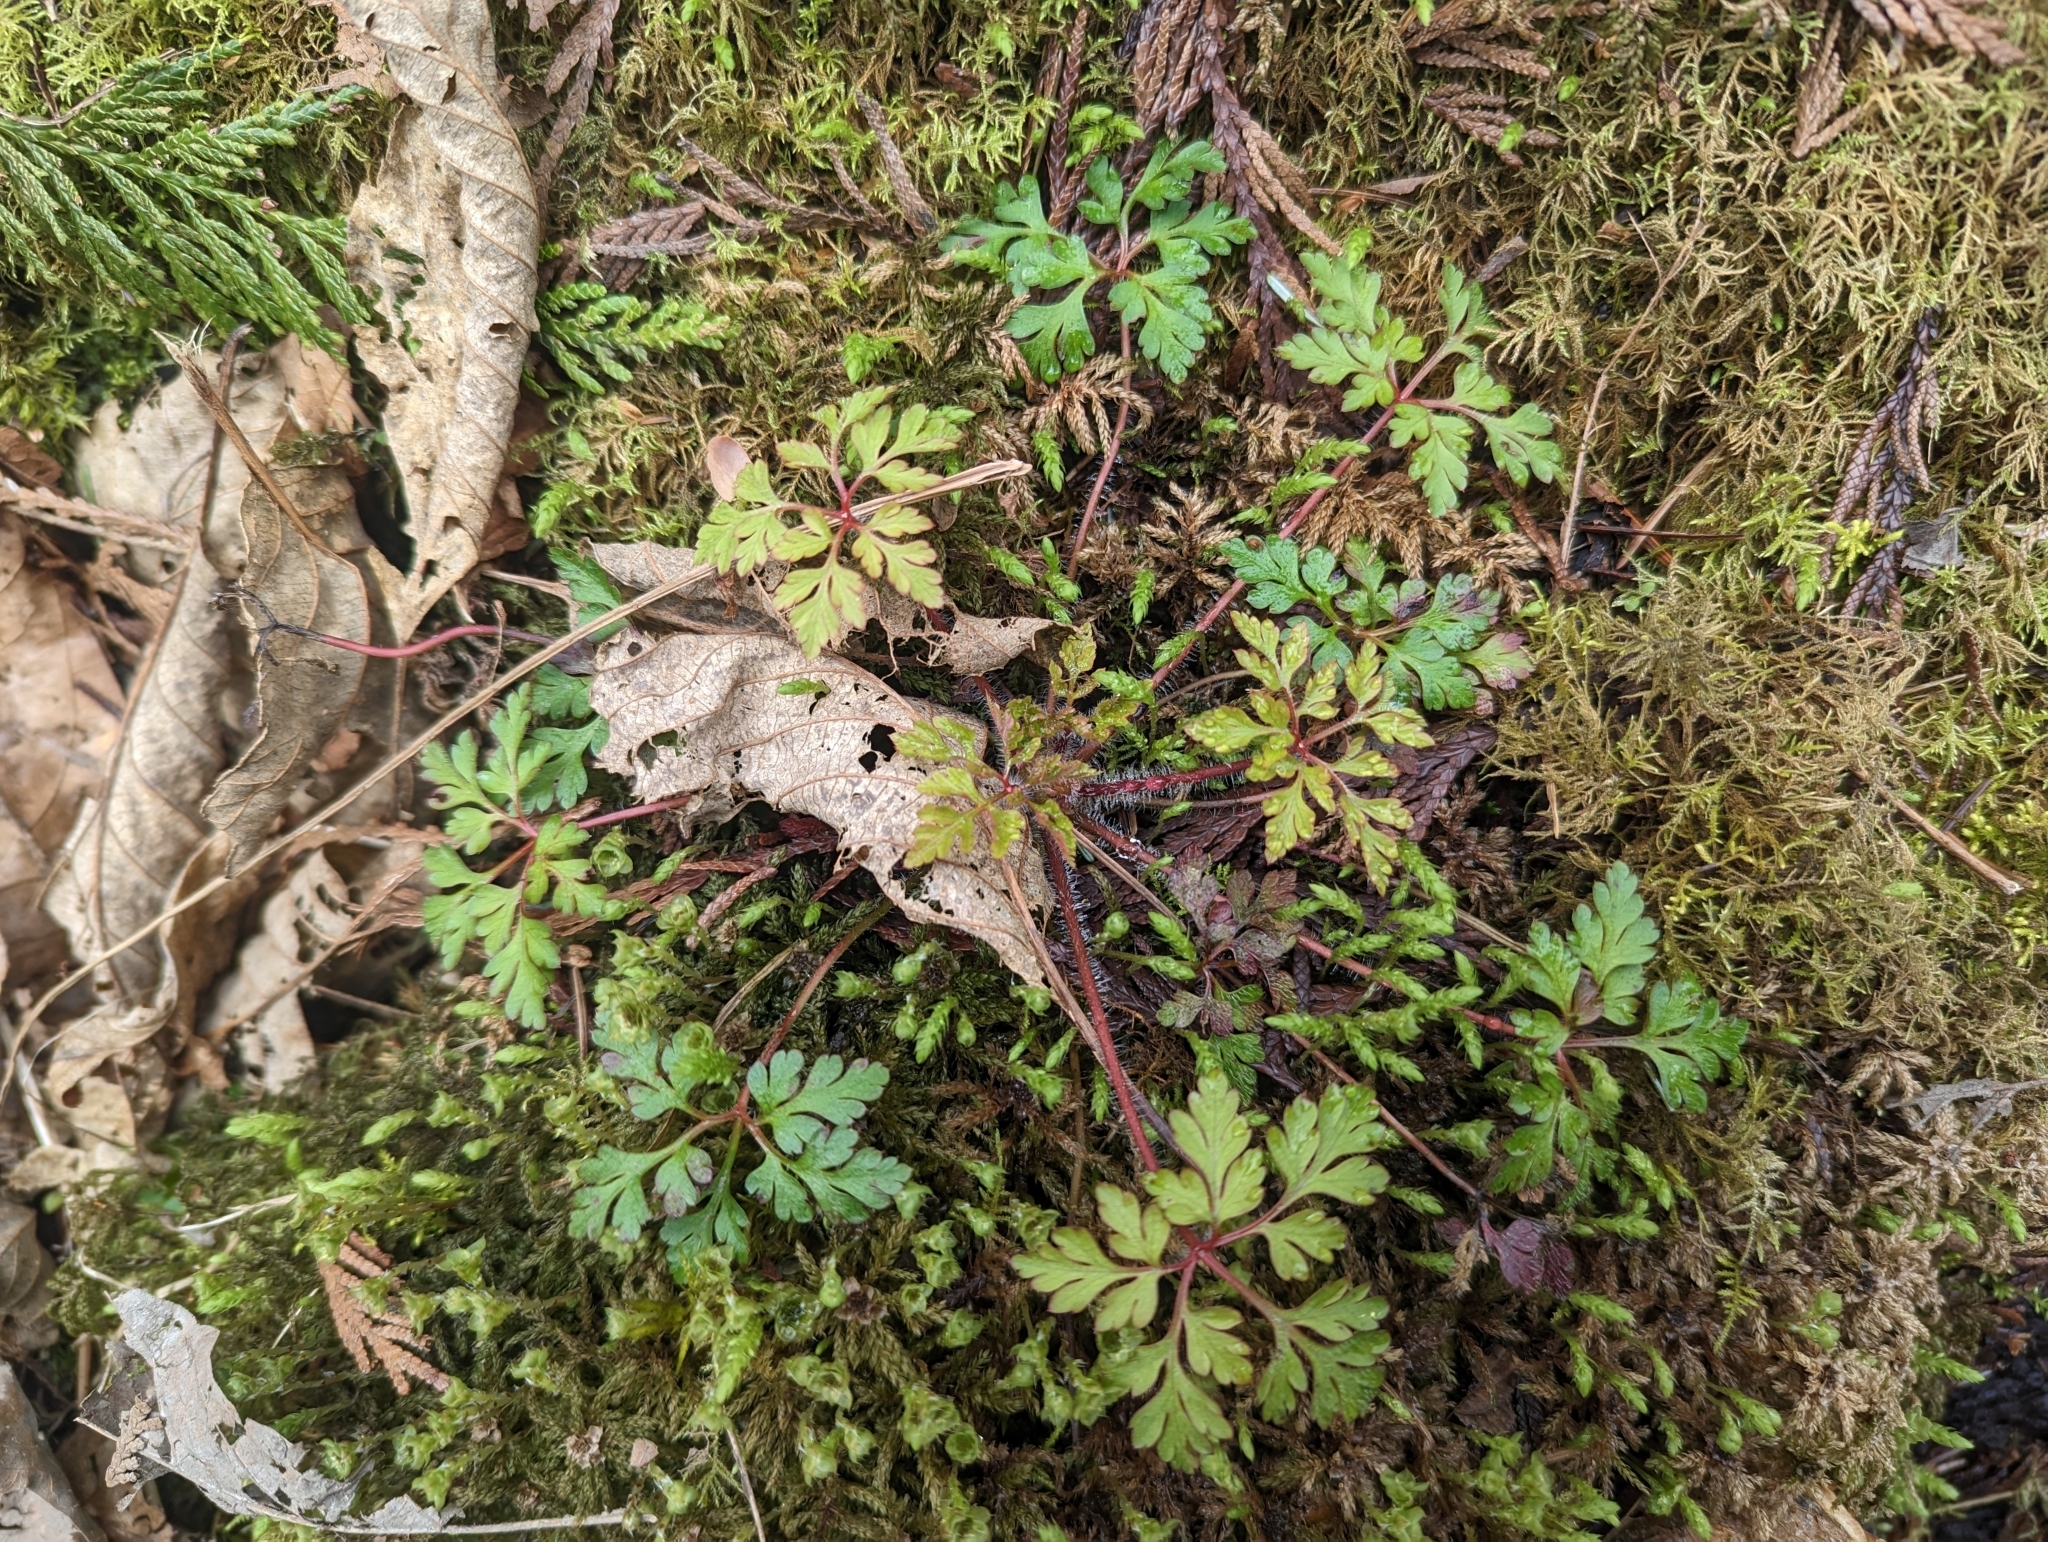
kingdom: Plantae
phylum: Tracheophyta
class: Magnoliopsida
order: Geraniales
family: Geraniaceae
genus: Geranium
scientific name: Geranium robertianum
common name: Herb-robert
